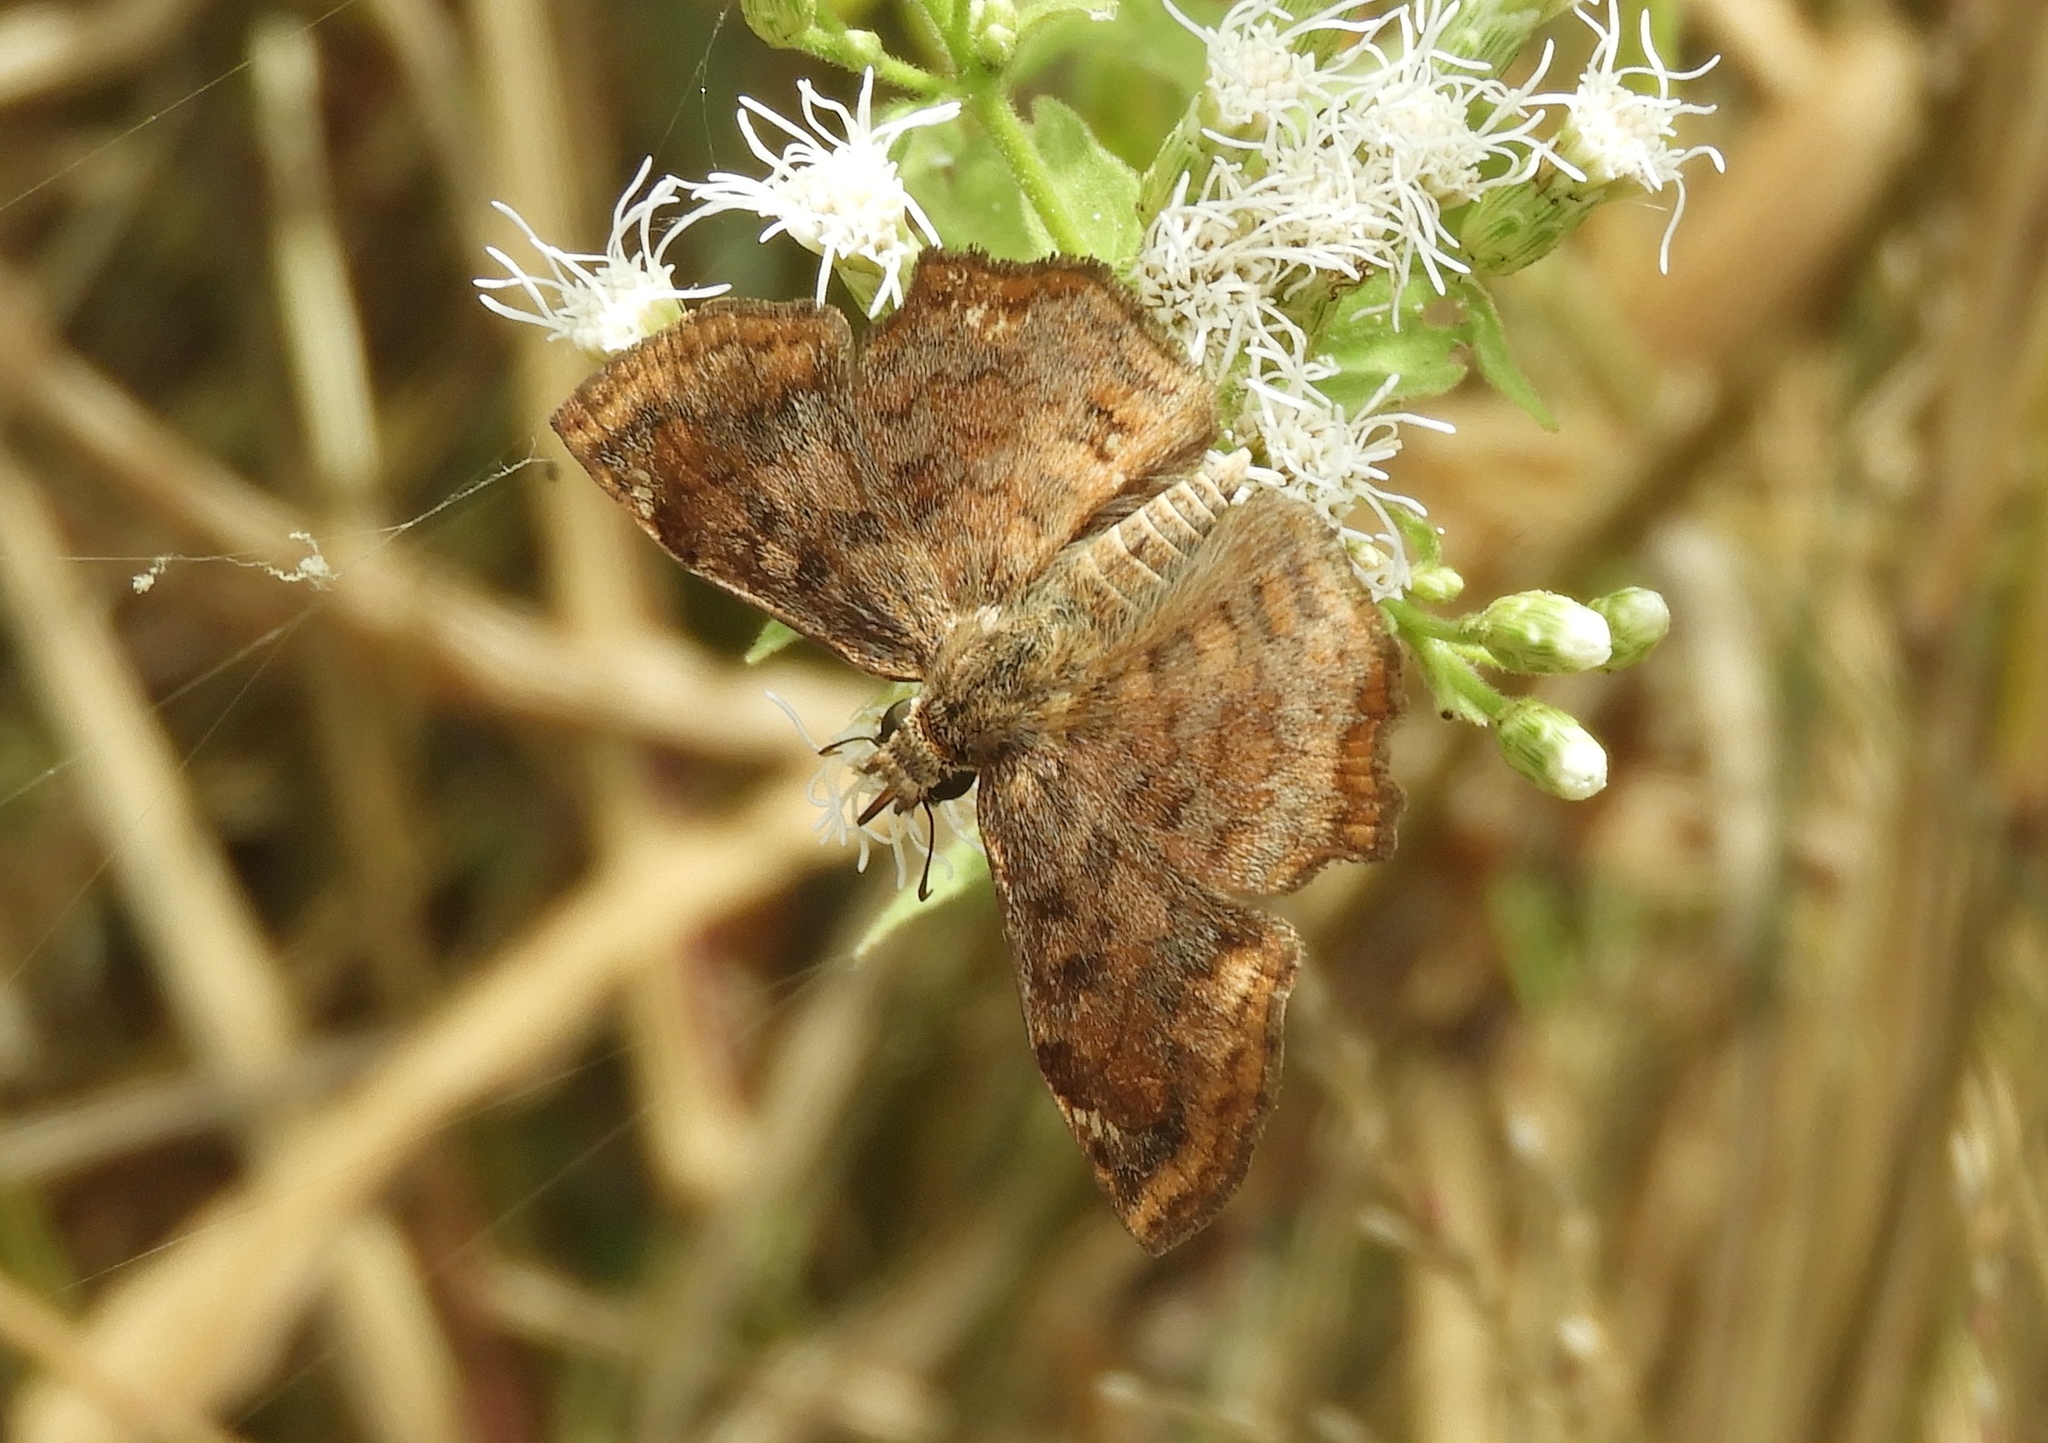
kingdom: Animalia
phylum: Arthropoda
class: Insecta
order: Lepidoptera
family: Hesperiidae
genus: Antigonus
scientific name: Antigonus erosus
